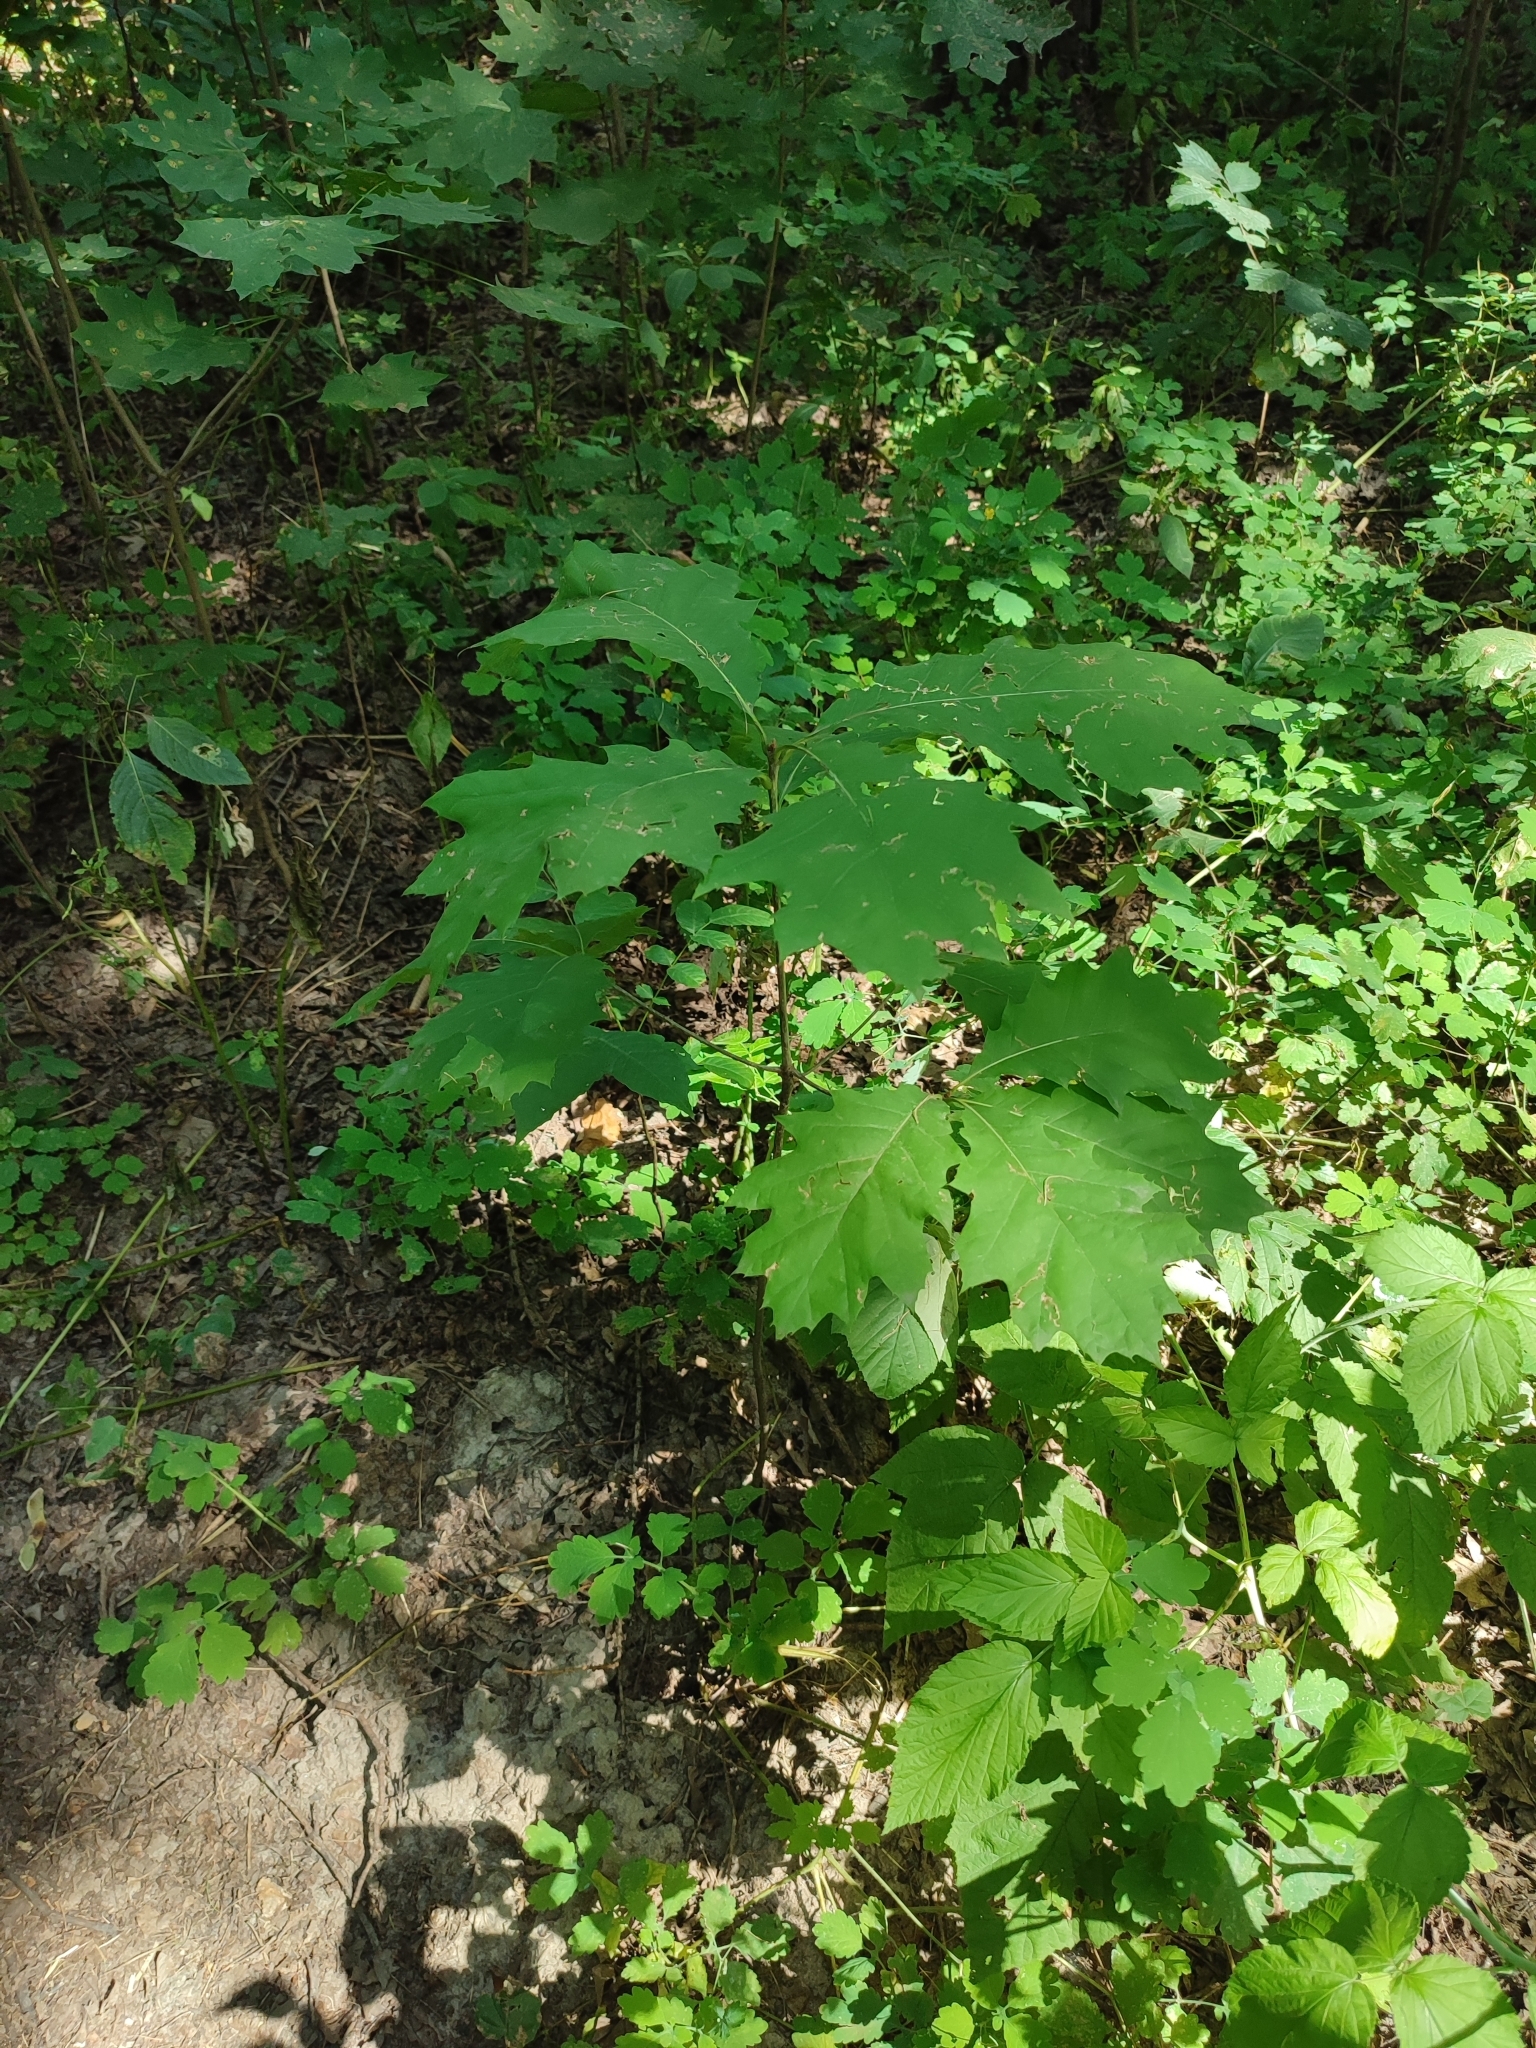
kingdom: Plantae
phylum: Tracheophyta
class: Magnoliopsida
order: Fagales
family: Fagaceae
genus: Quercus
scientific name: Quercus rubra
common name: Red oak
